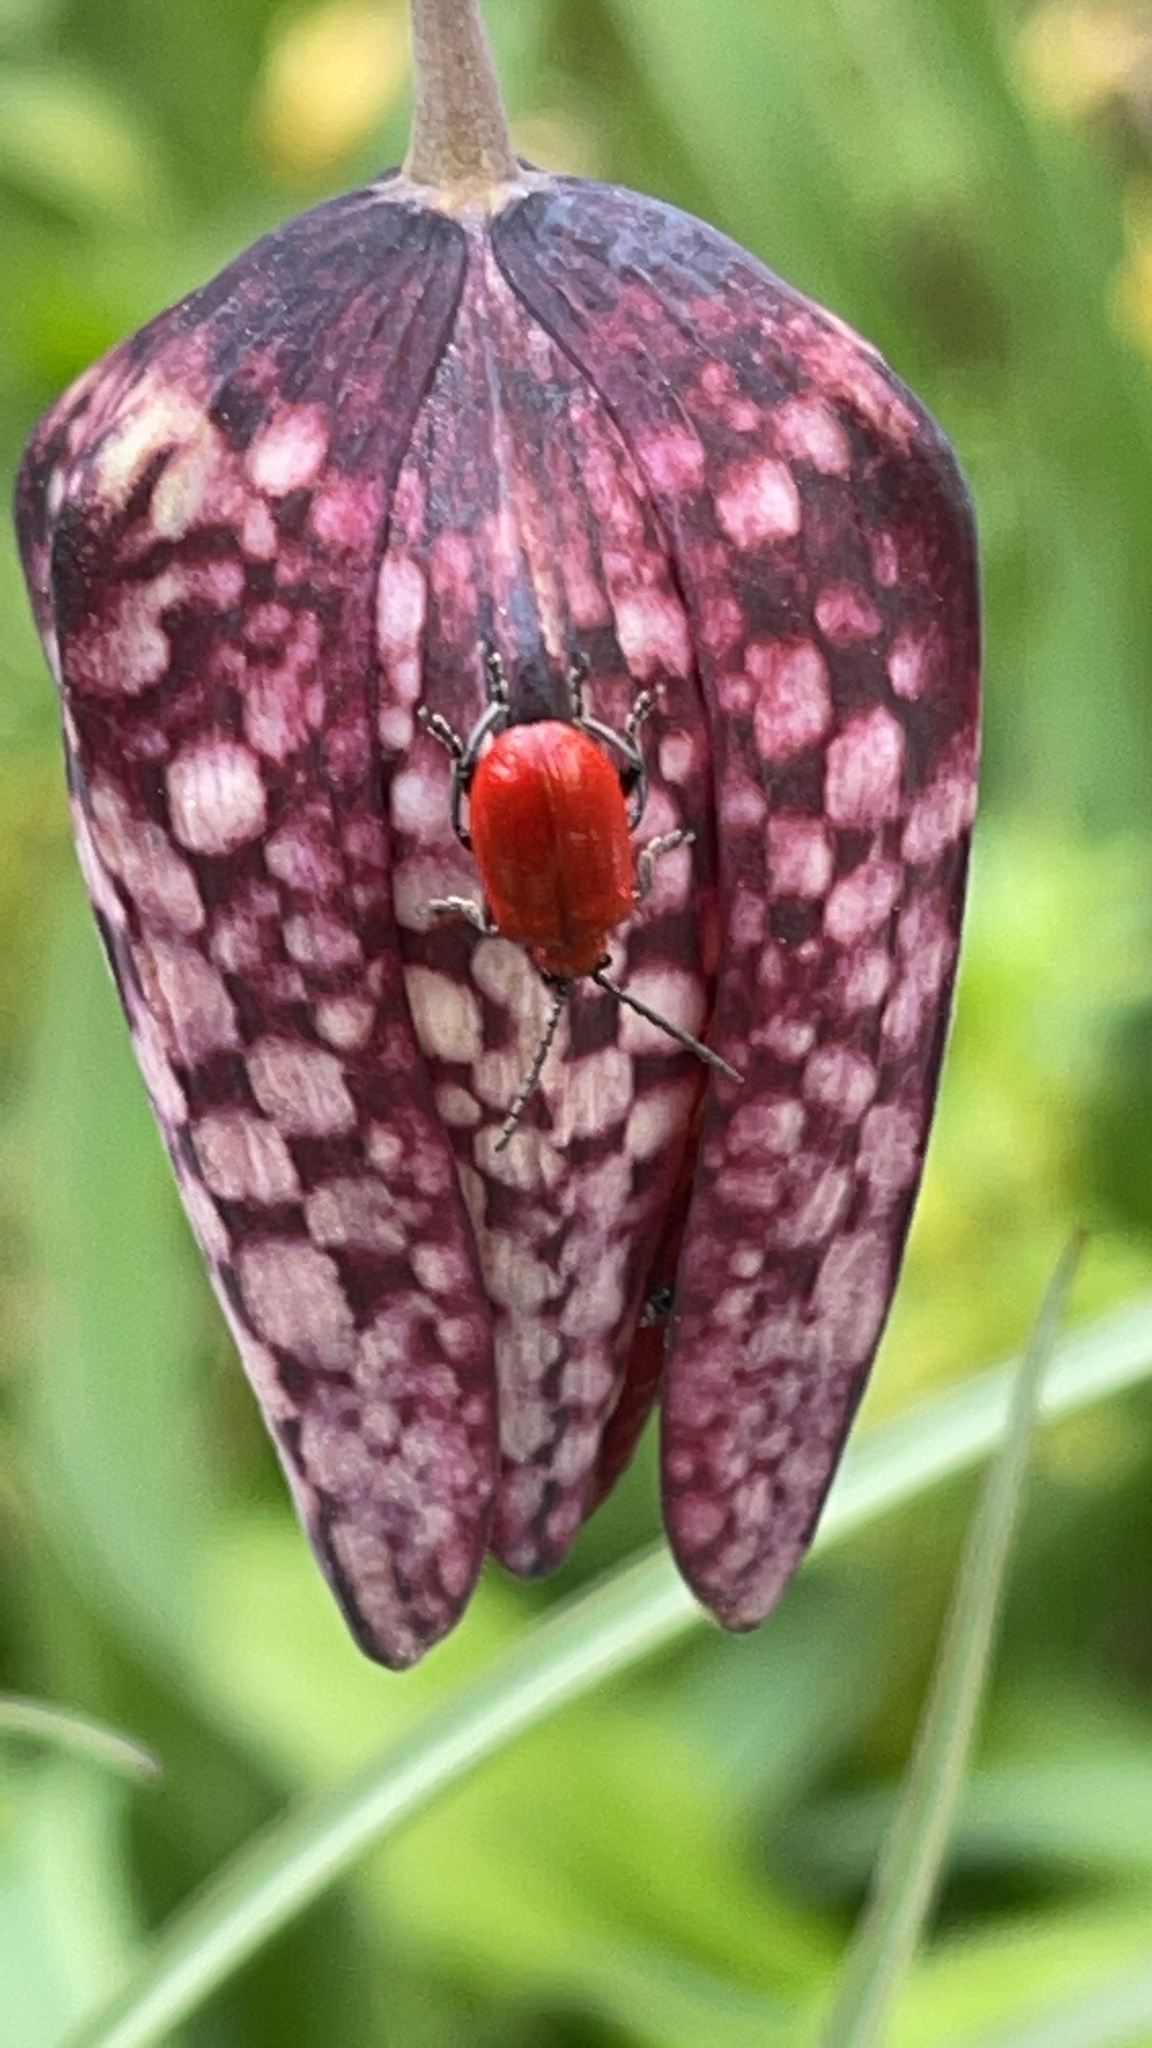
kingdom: Animalia
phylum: Arthropoda
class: Insecta
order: Coleoptera
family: Chrysomelidae
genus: Lilioceris
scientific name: Lilioceris lilii
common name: Lily beetle
